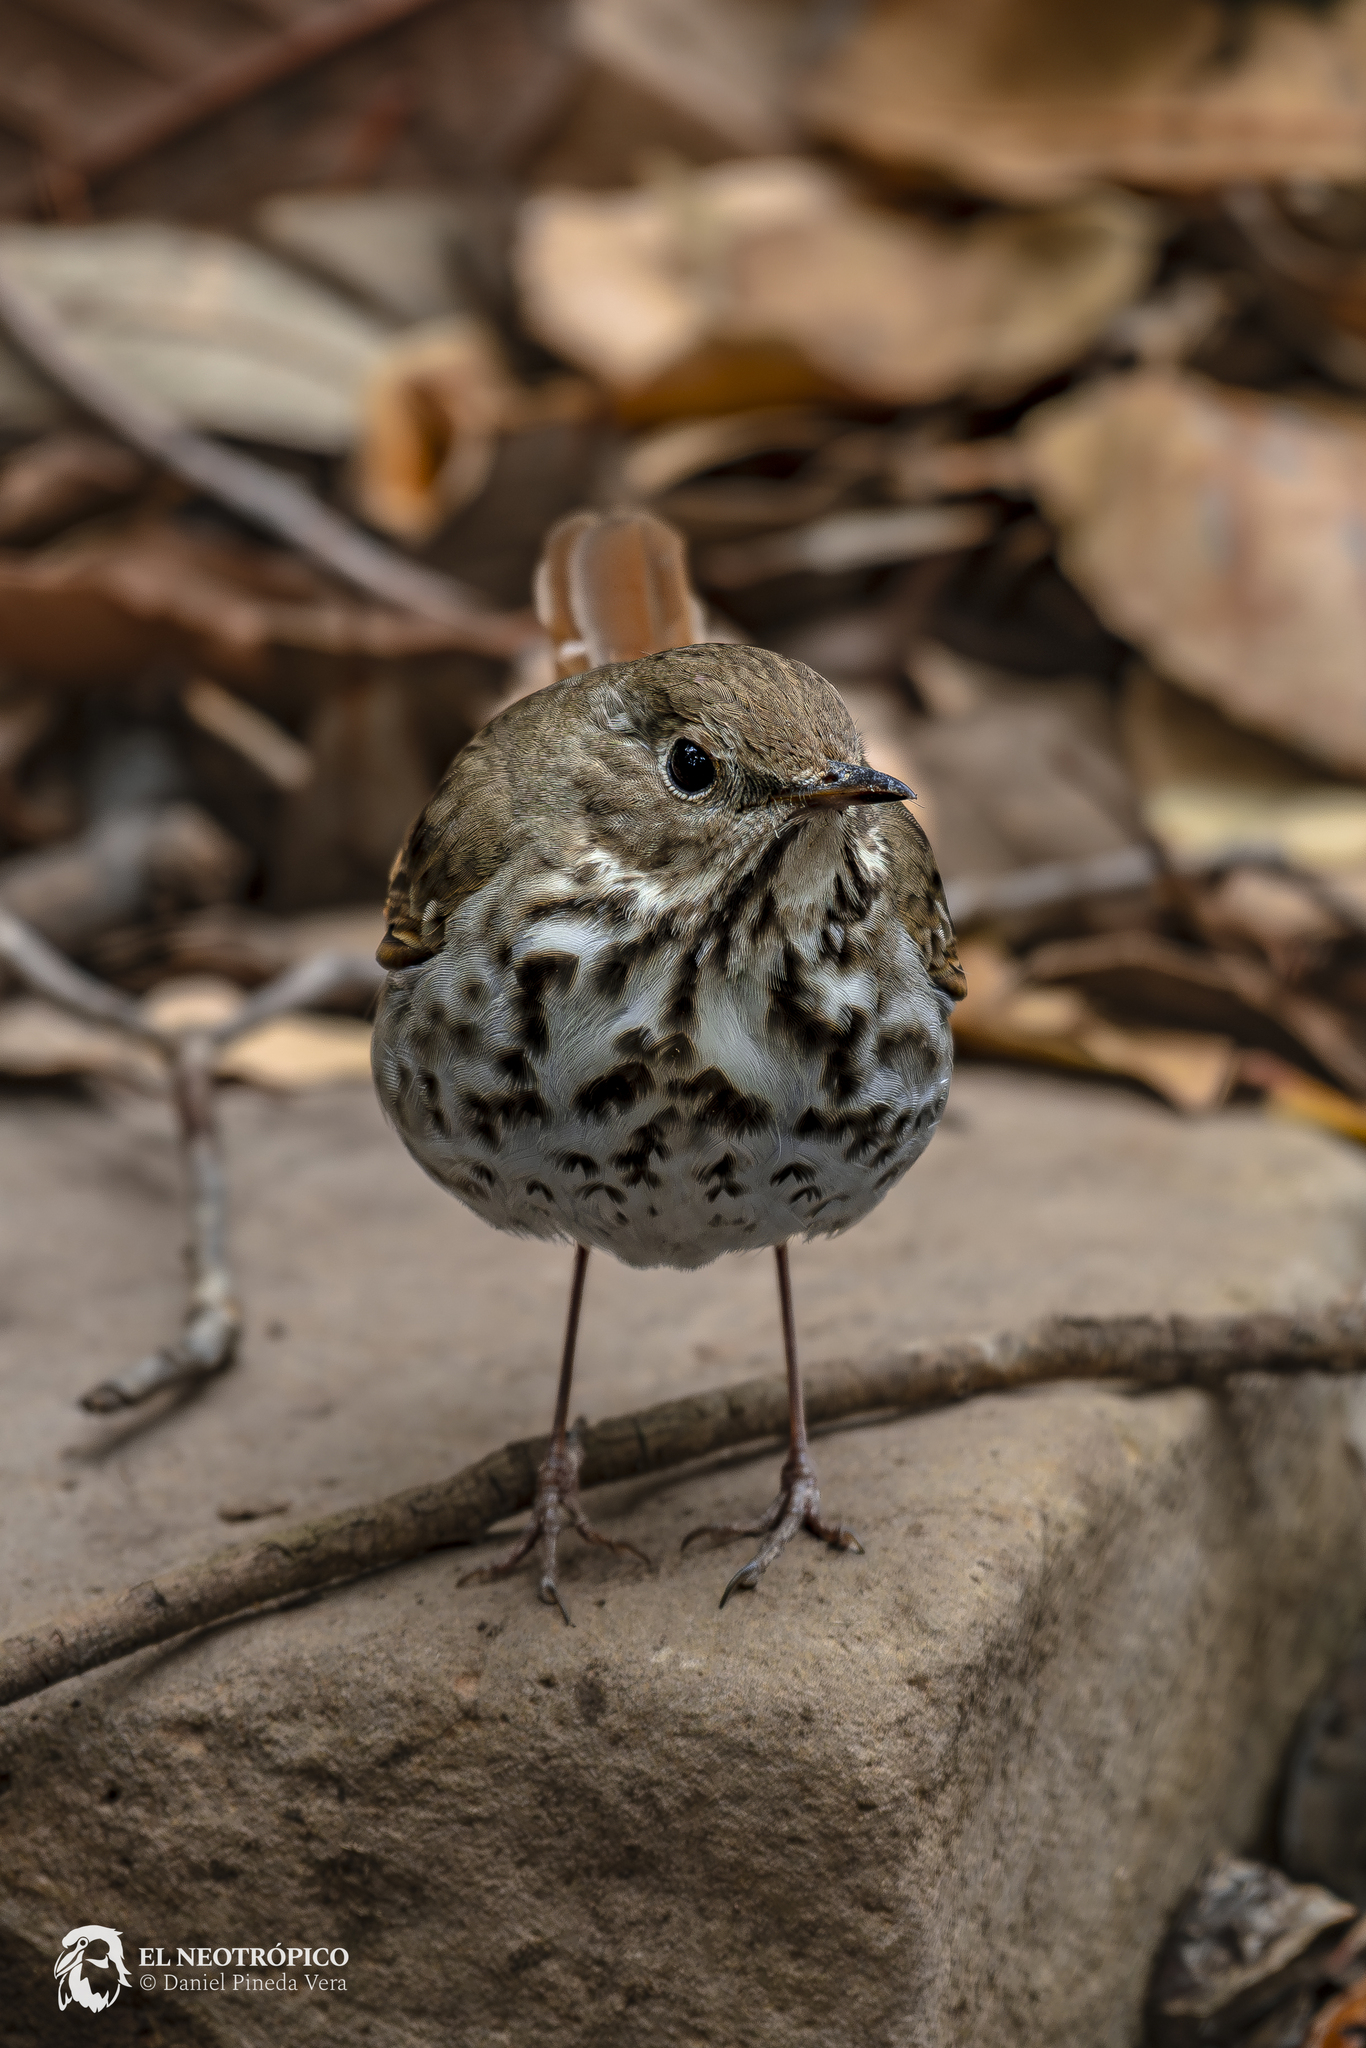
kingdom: Animalia
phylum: Chordata
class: Aves
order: Passeriformes
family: Turdidae
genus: Catharus
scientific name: Catharus guttatus
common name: Hermit thrush
